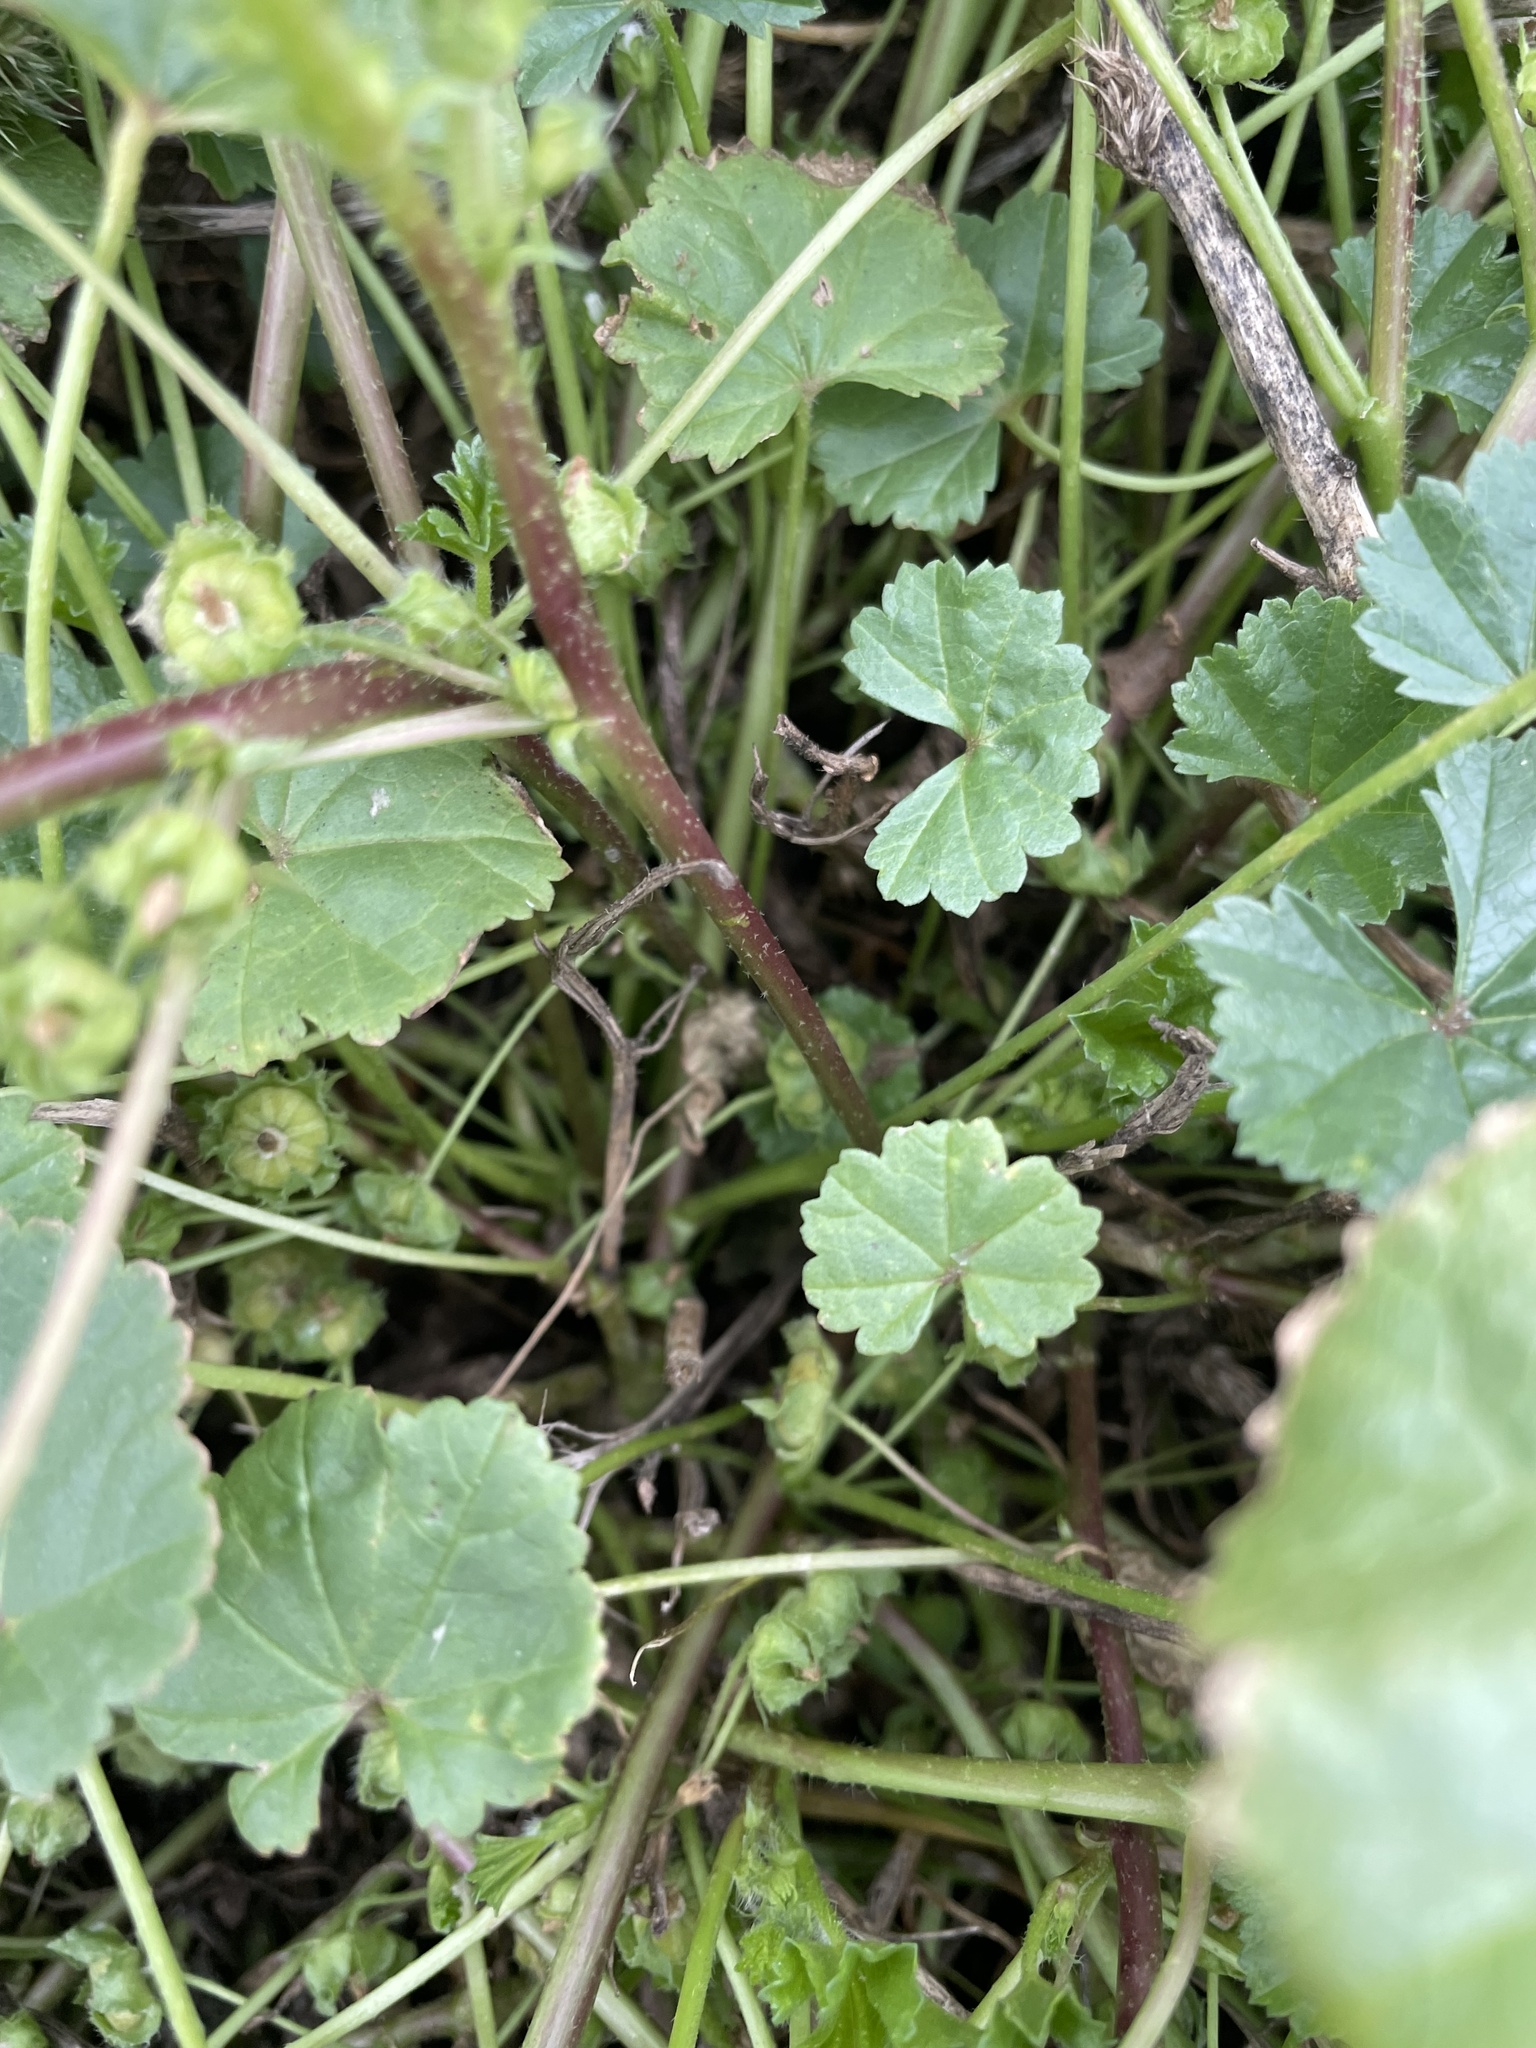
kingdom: Plantae
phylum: Tracheophyta
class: Magnoliopsida
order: Malvales
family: Malvaceae
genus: Malva
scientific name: Malva pusilla
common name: Small mallow
